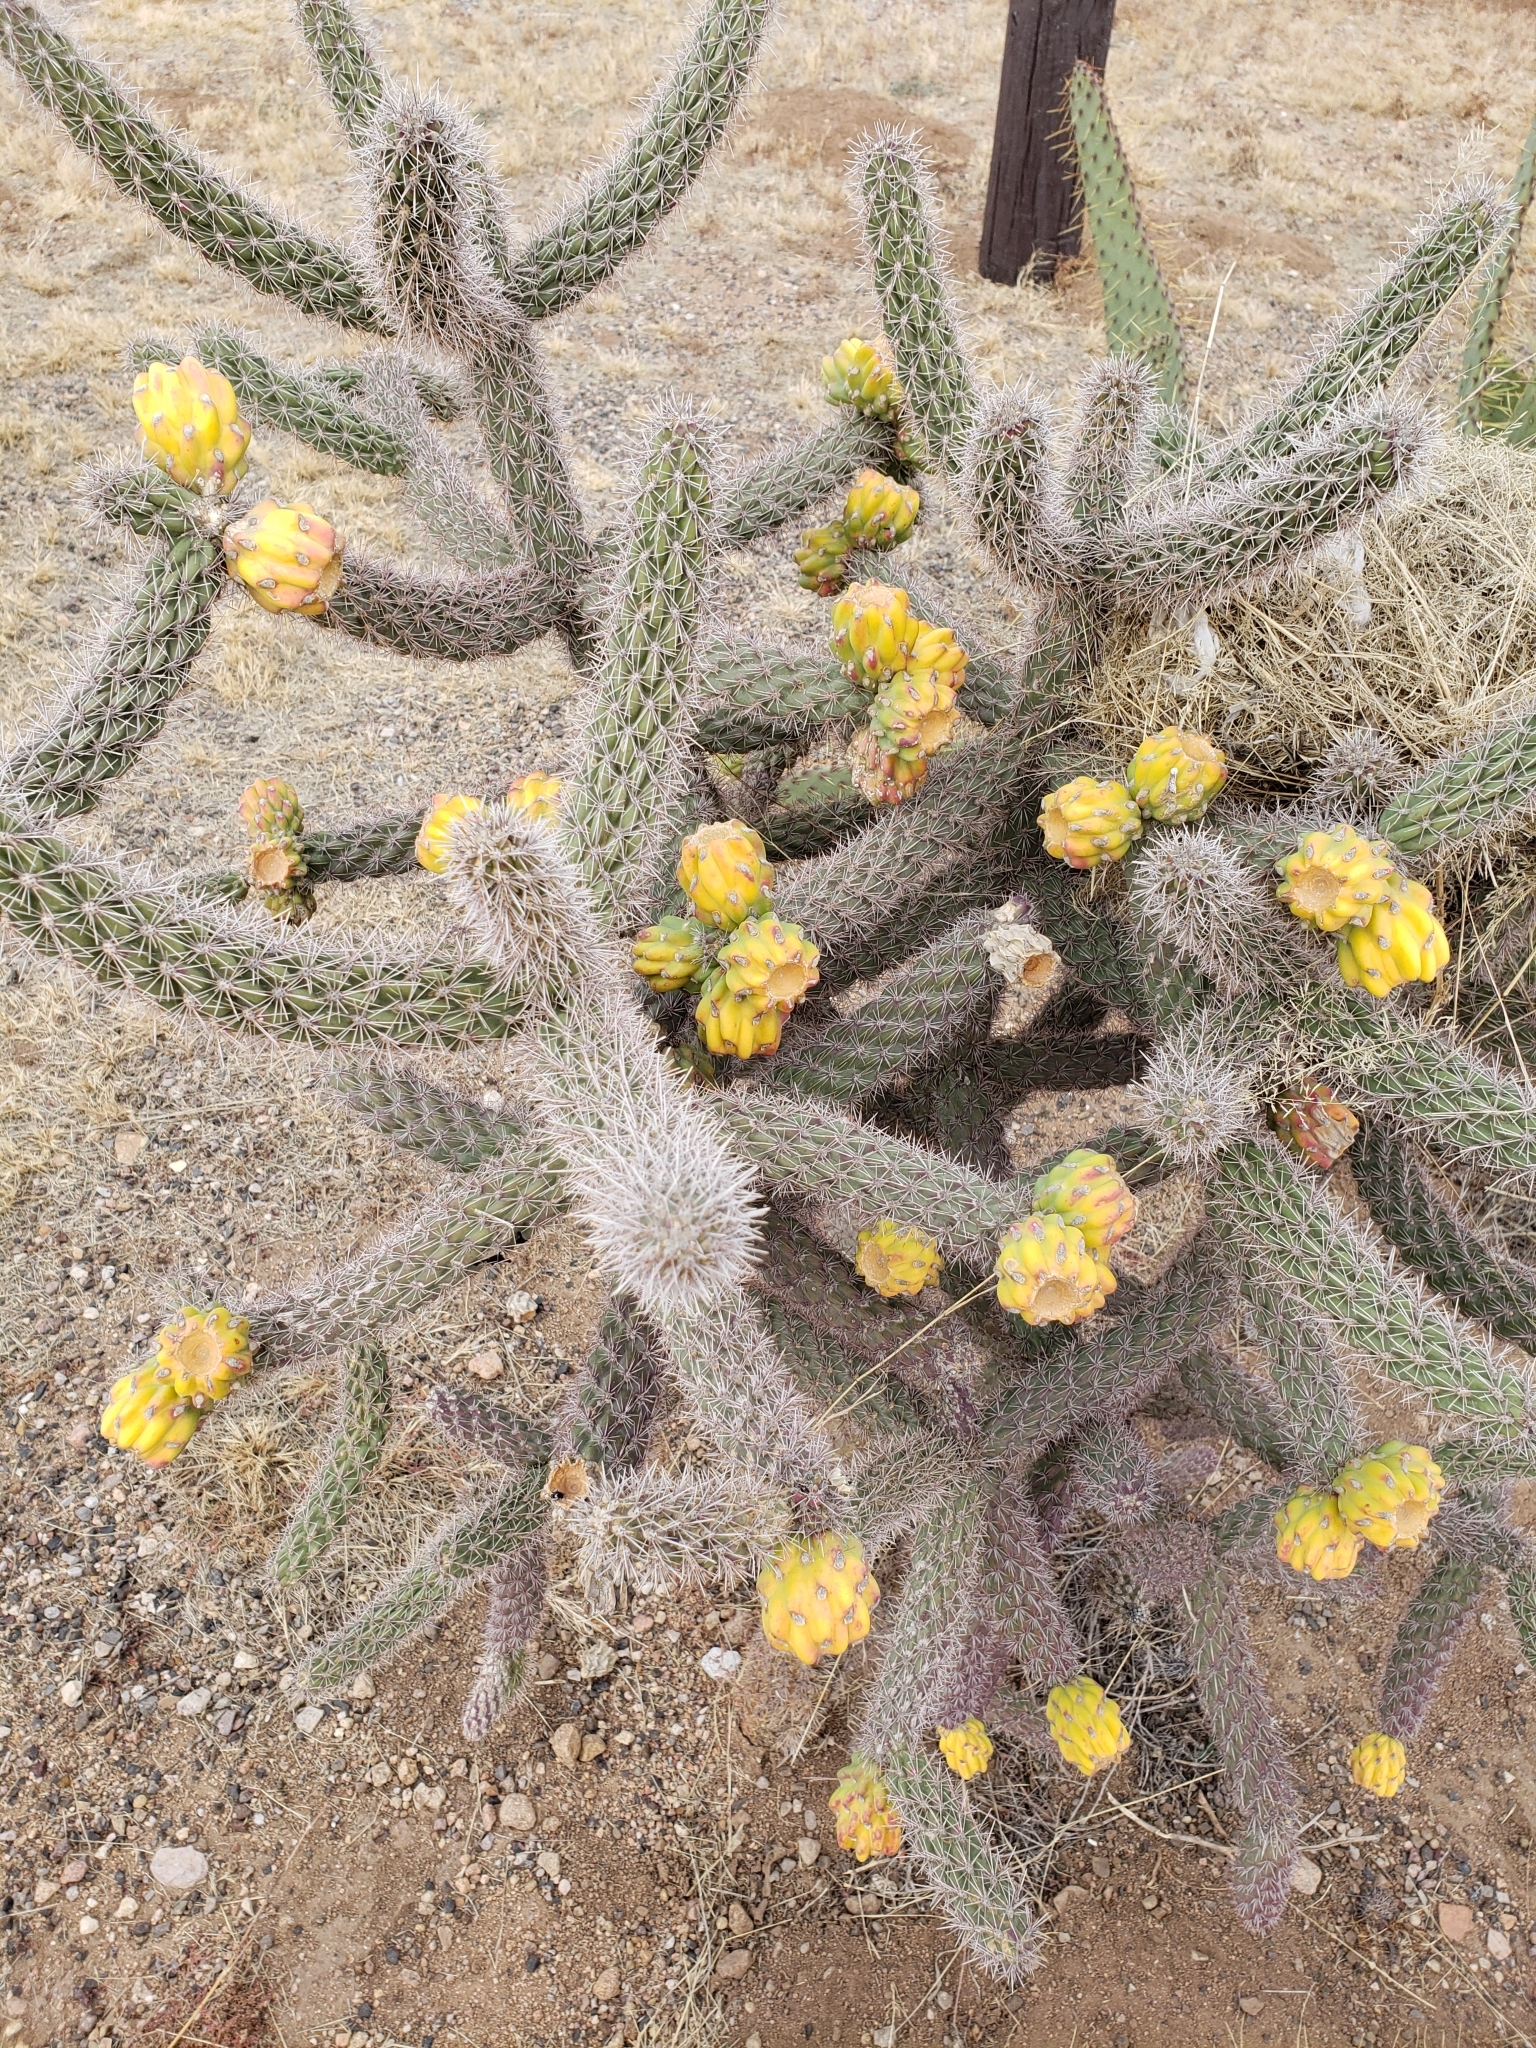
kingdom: Plantae
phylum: Tracheophyta
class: Magnoliopsida
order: Caryophyllales
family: Cactaceae
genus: Cylindropuntia
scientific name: Cylindropuntia imbricata
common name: Candelabrum cactus
